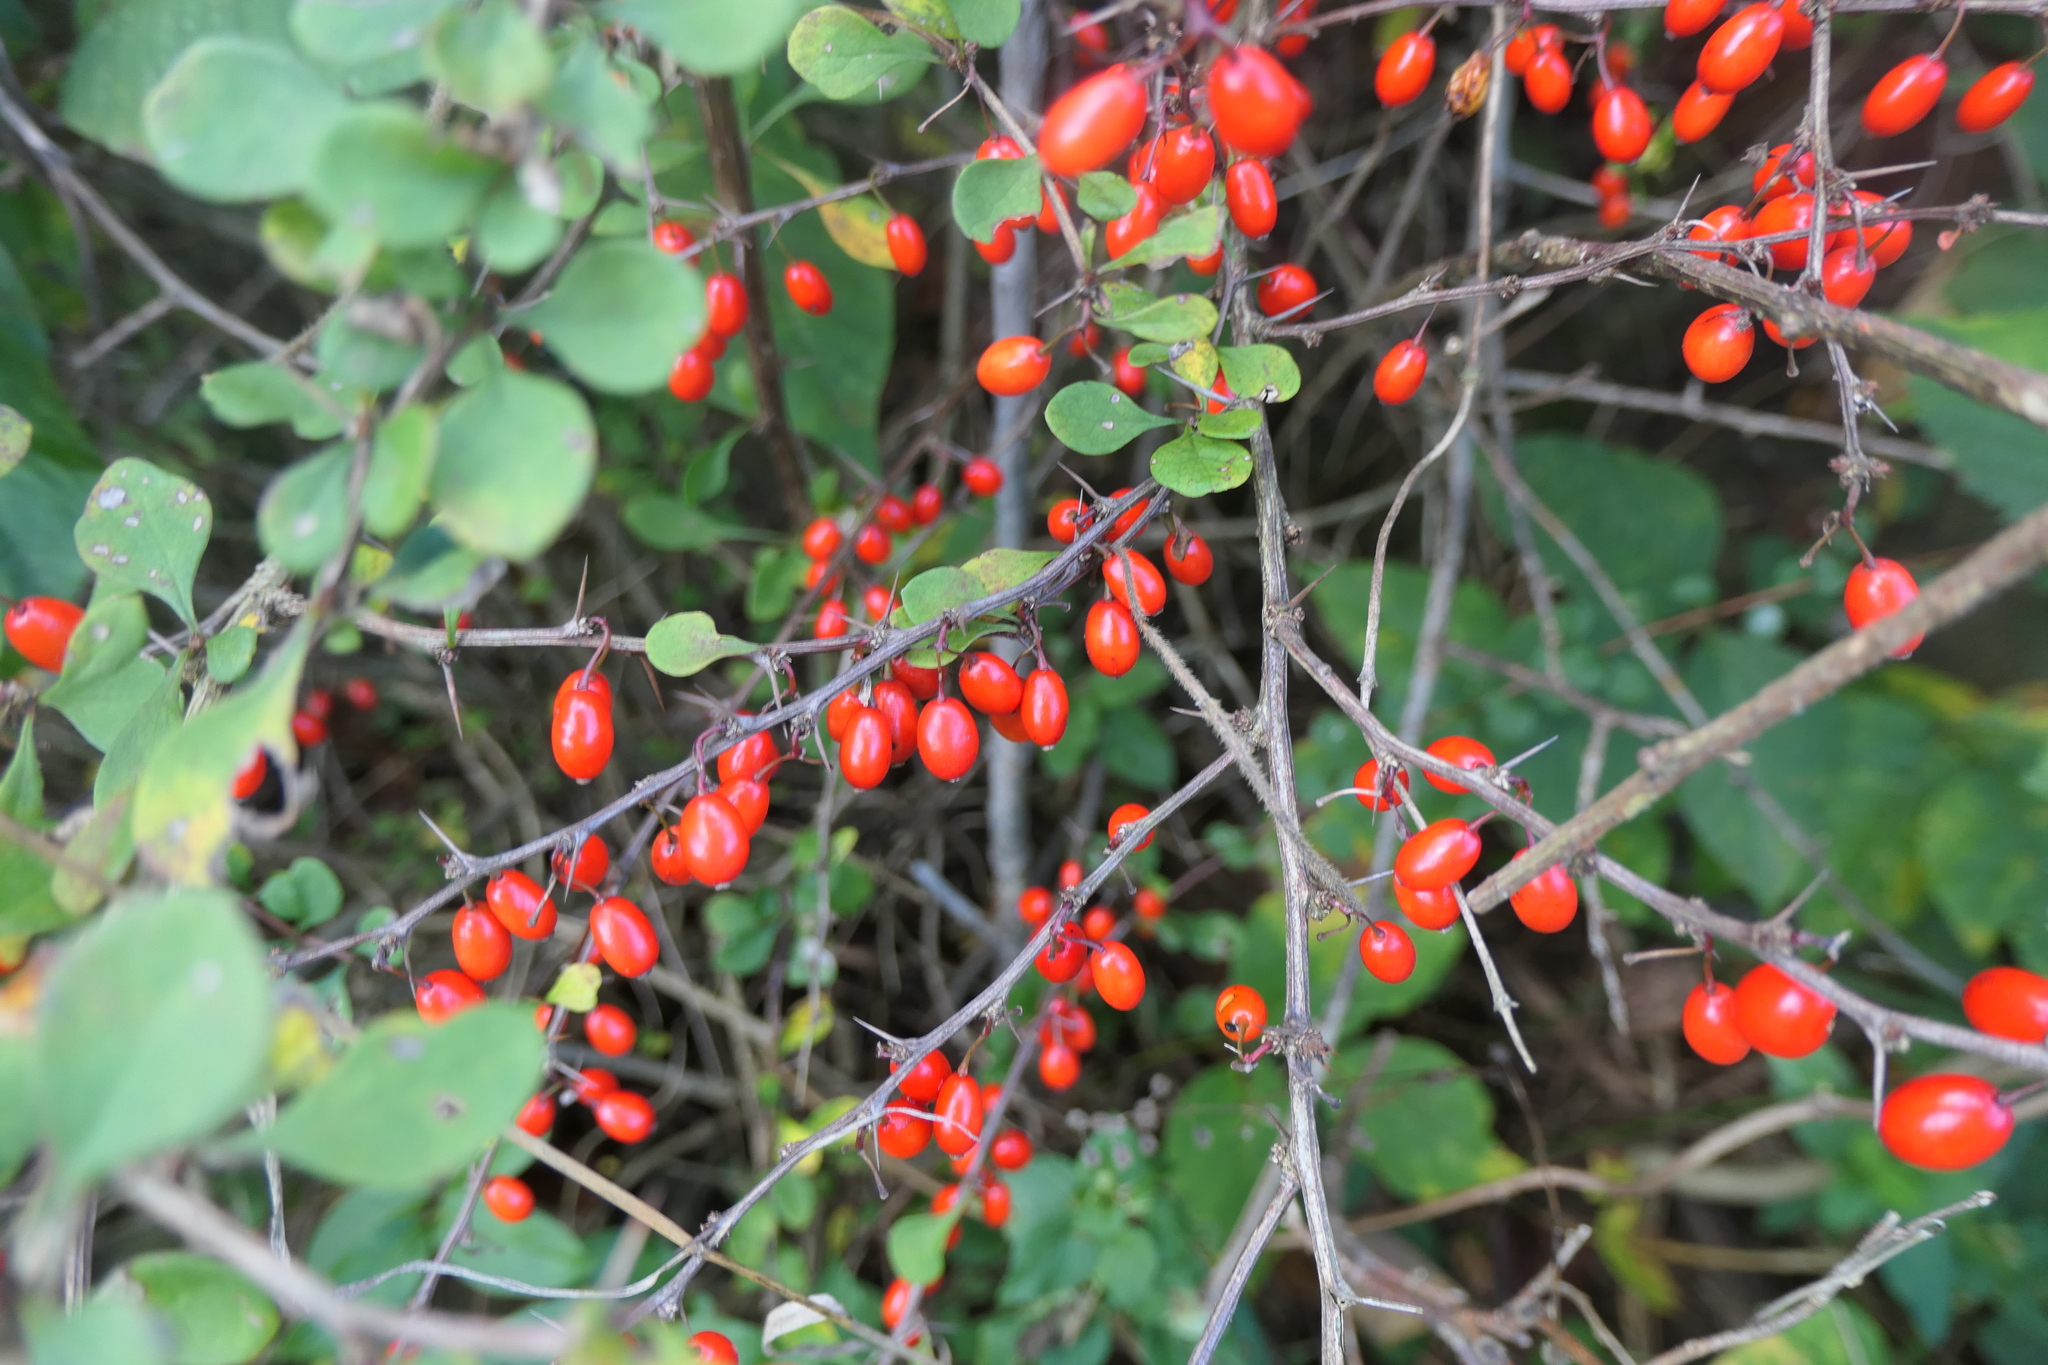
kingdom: Plantae
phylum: Tracheophyta
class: Magnoliopsida
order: Ranunculales
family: Berberidaceae
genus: Berberis
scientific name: Berberis thunbergii
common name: Japanese barberry
